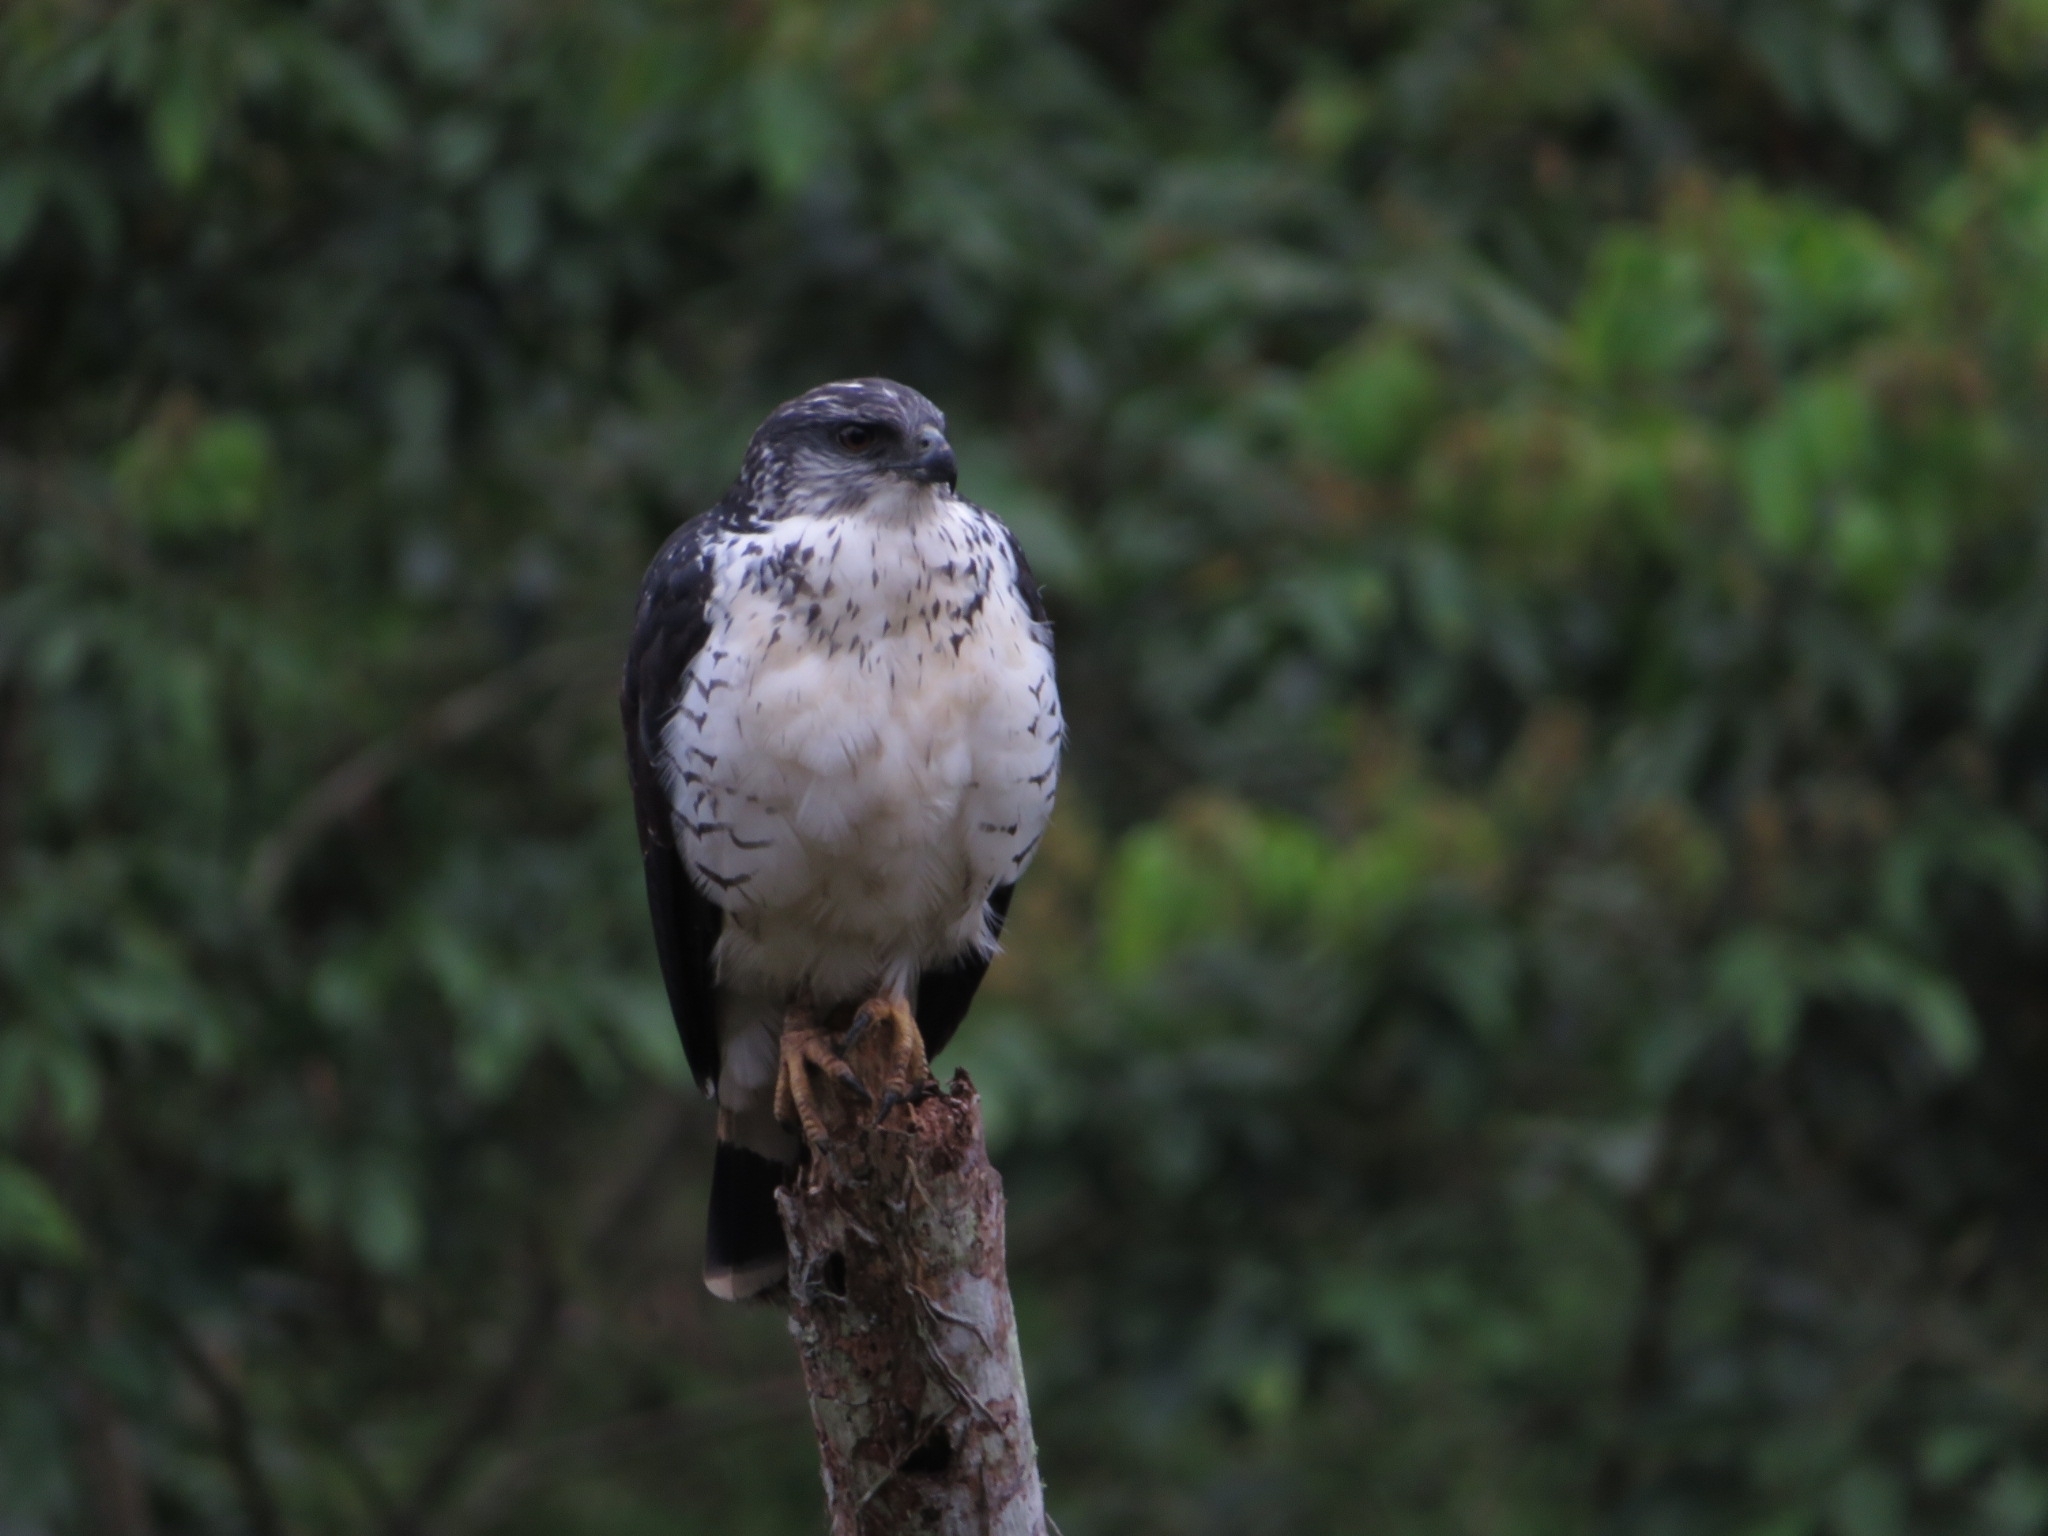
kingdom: Animalia
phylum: Chordata
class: Aves
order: Accipitriformes
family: Accipitridae
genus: Leucopternis
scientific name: Leucopternis occidentalis
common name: Grey-backed hawk
